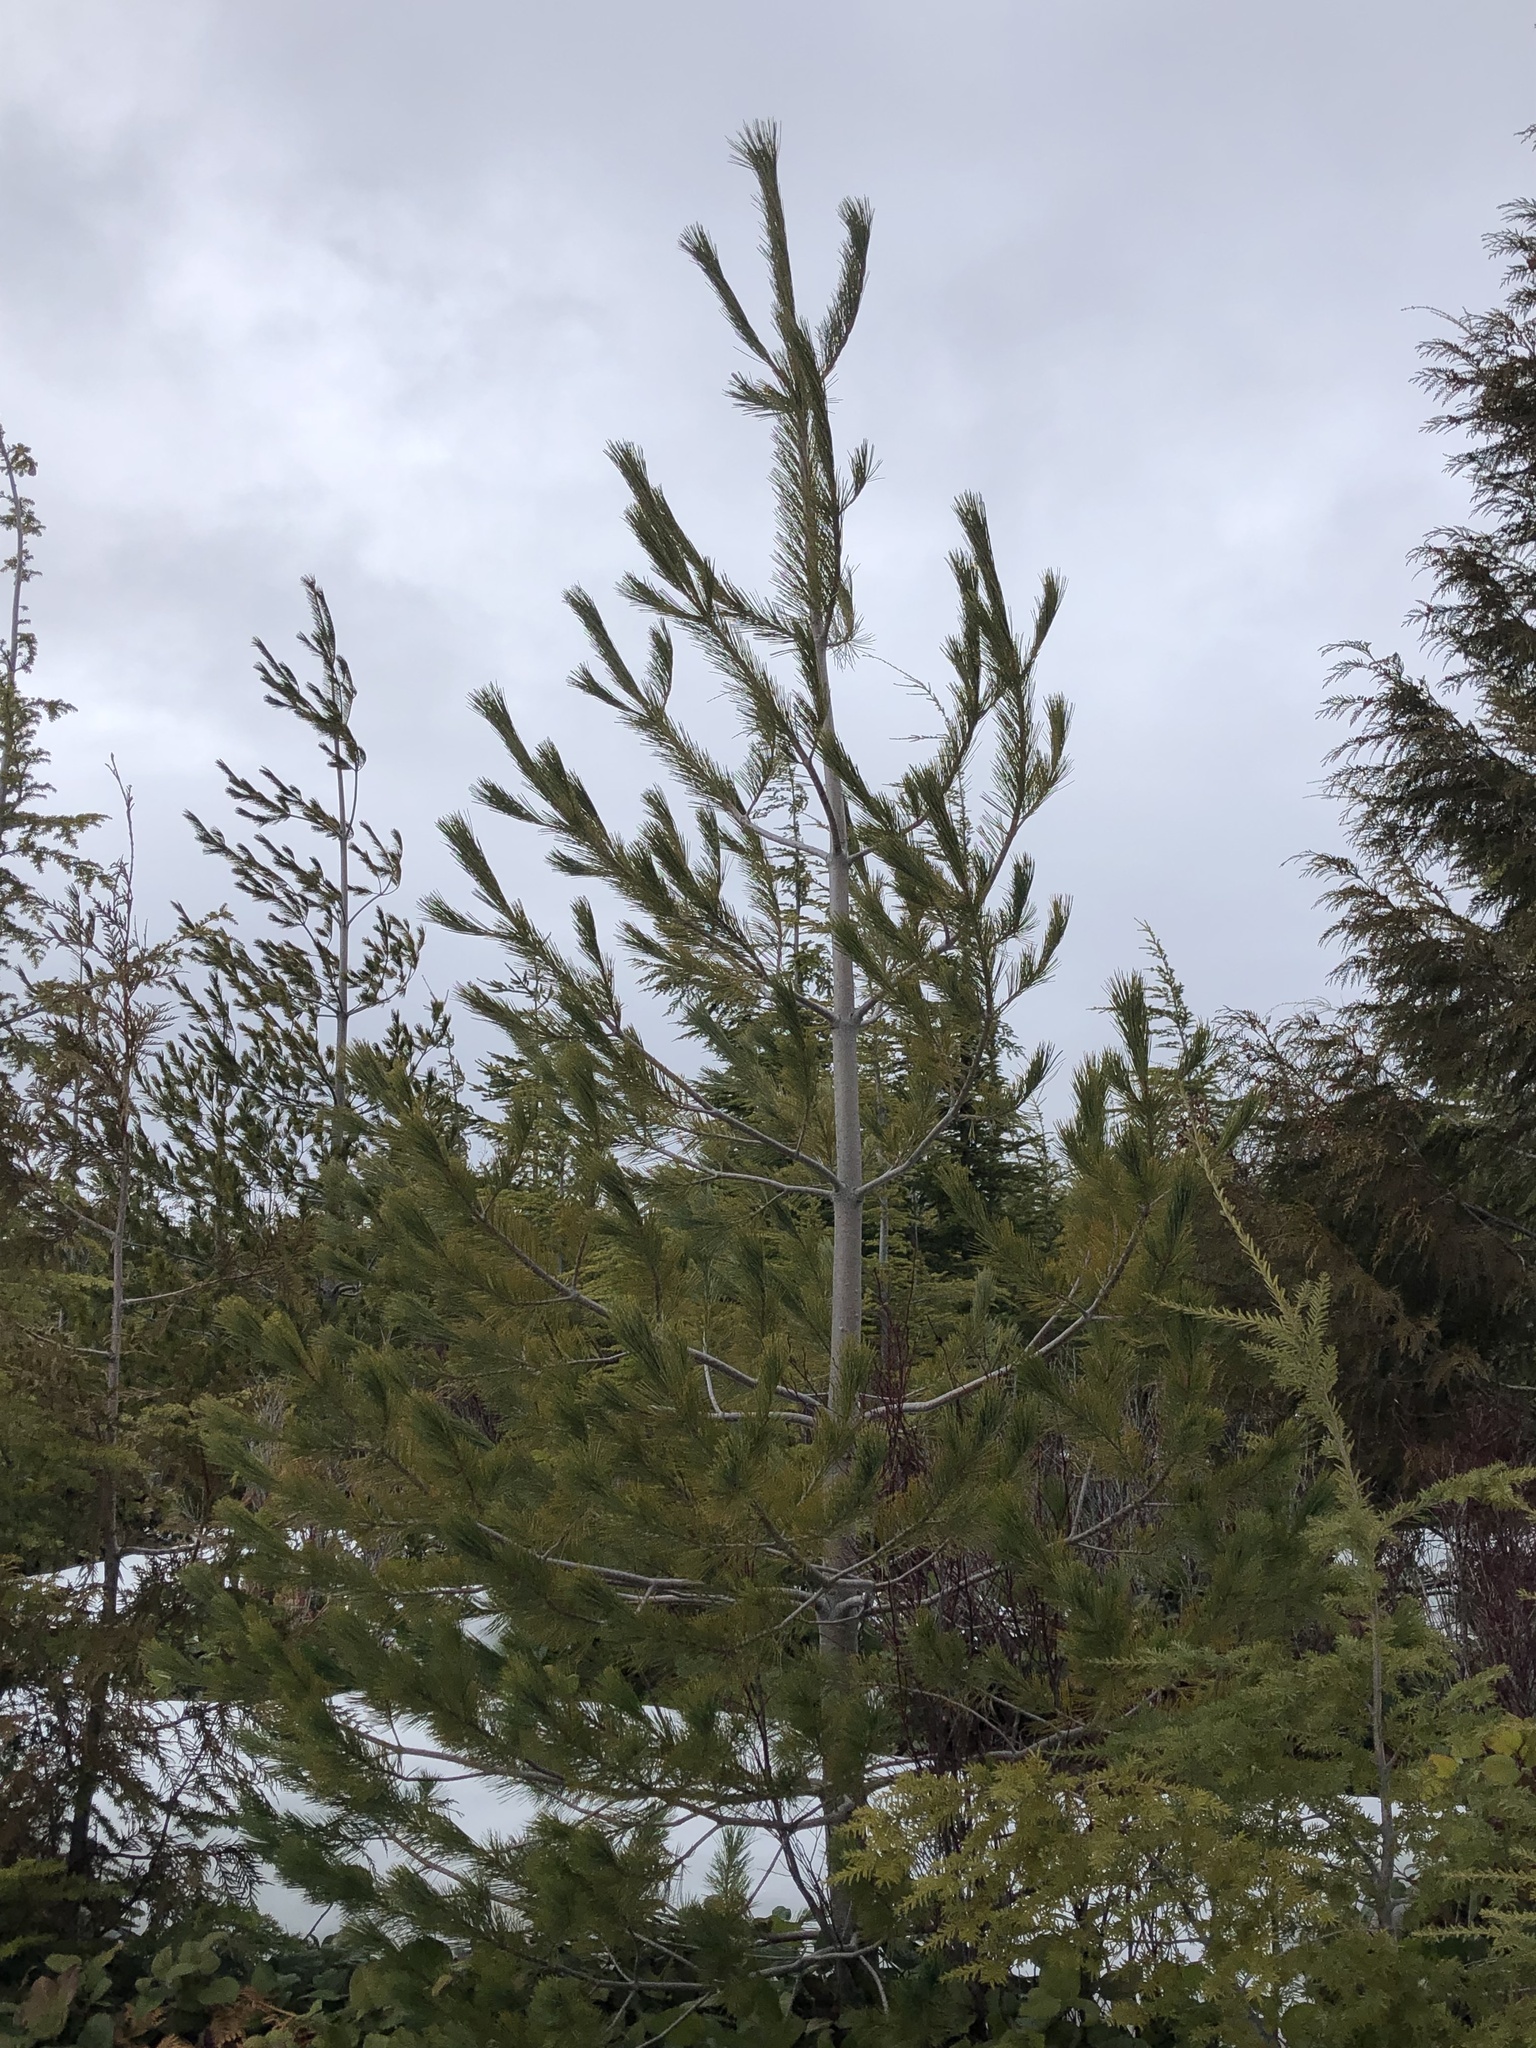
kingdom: Plantae
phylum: Tracheophyta
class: Pinopsida
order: Pinales
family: Pinaceae
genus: Pinus
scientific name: Pinus monticola
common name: Western white pine
